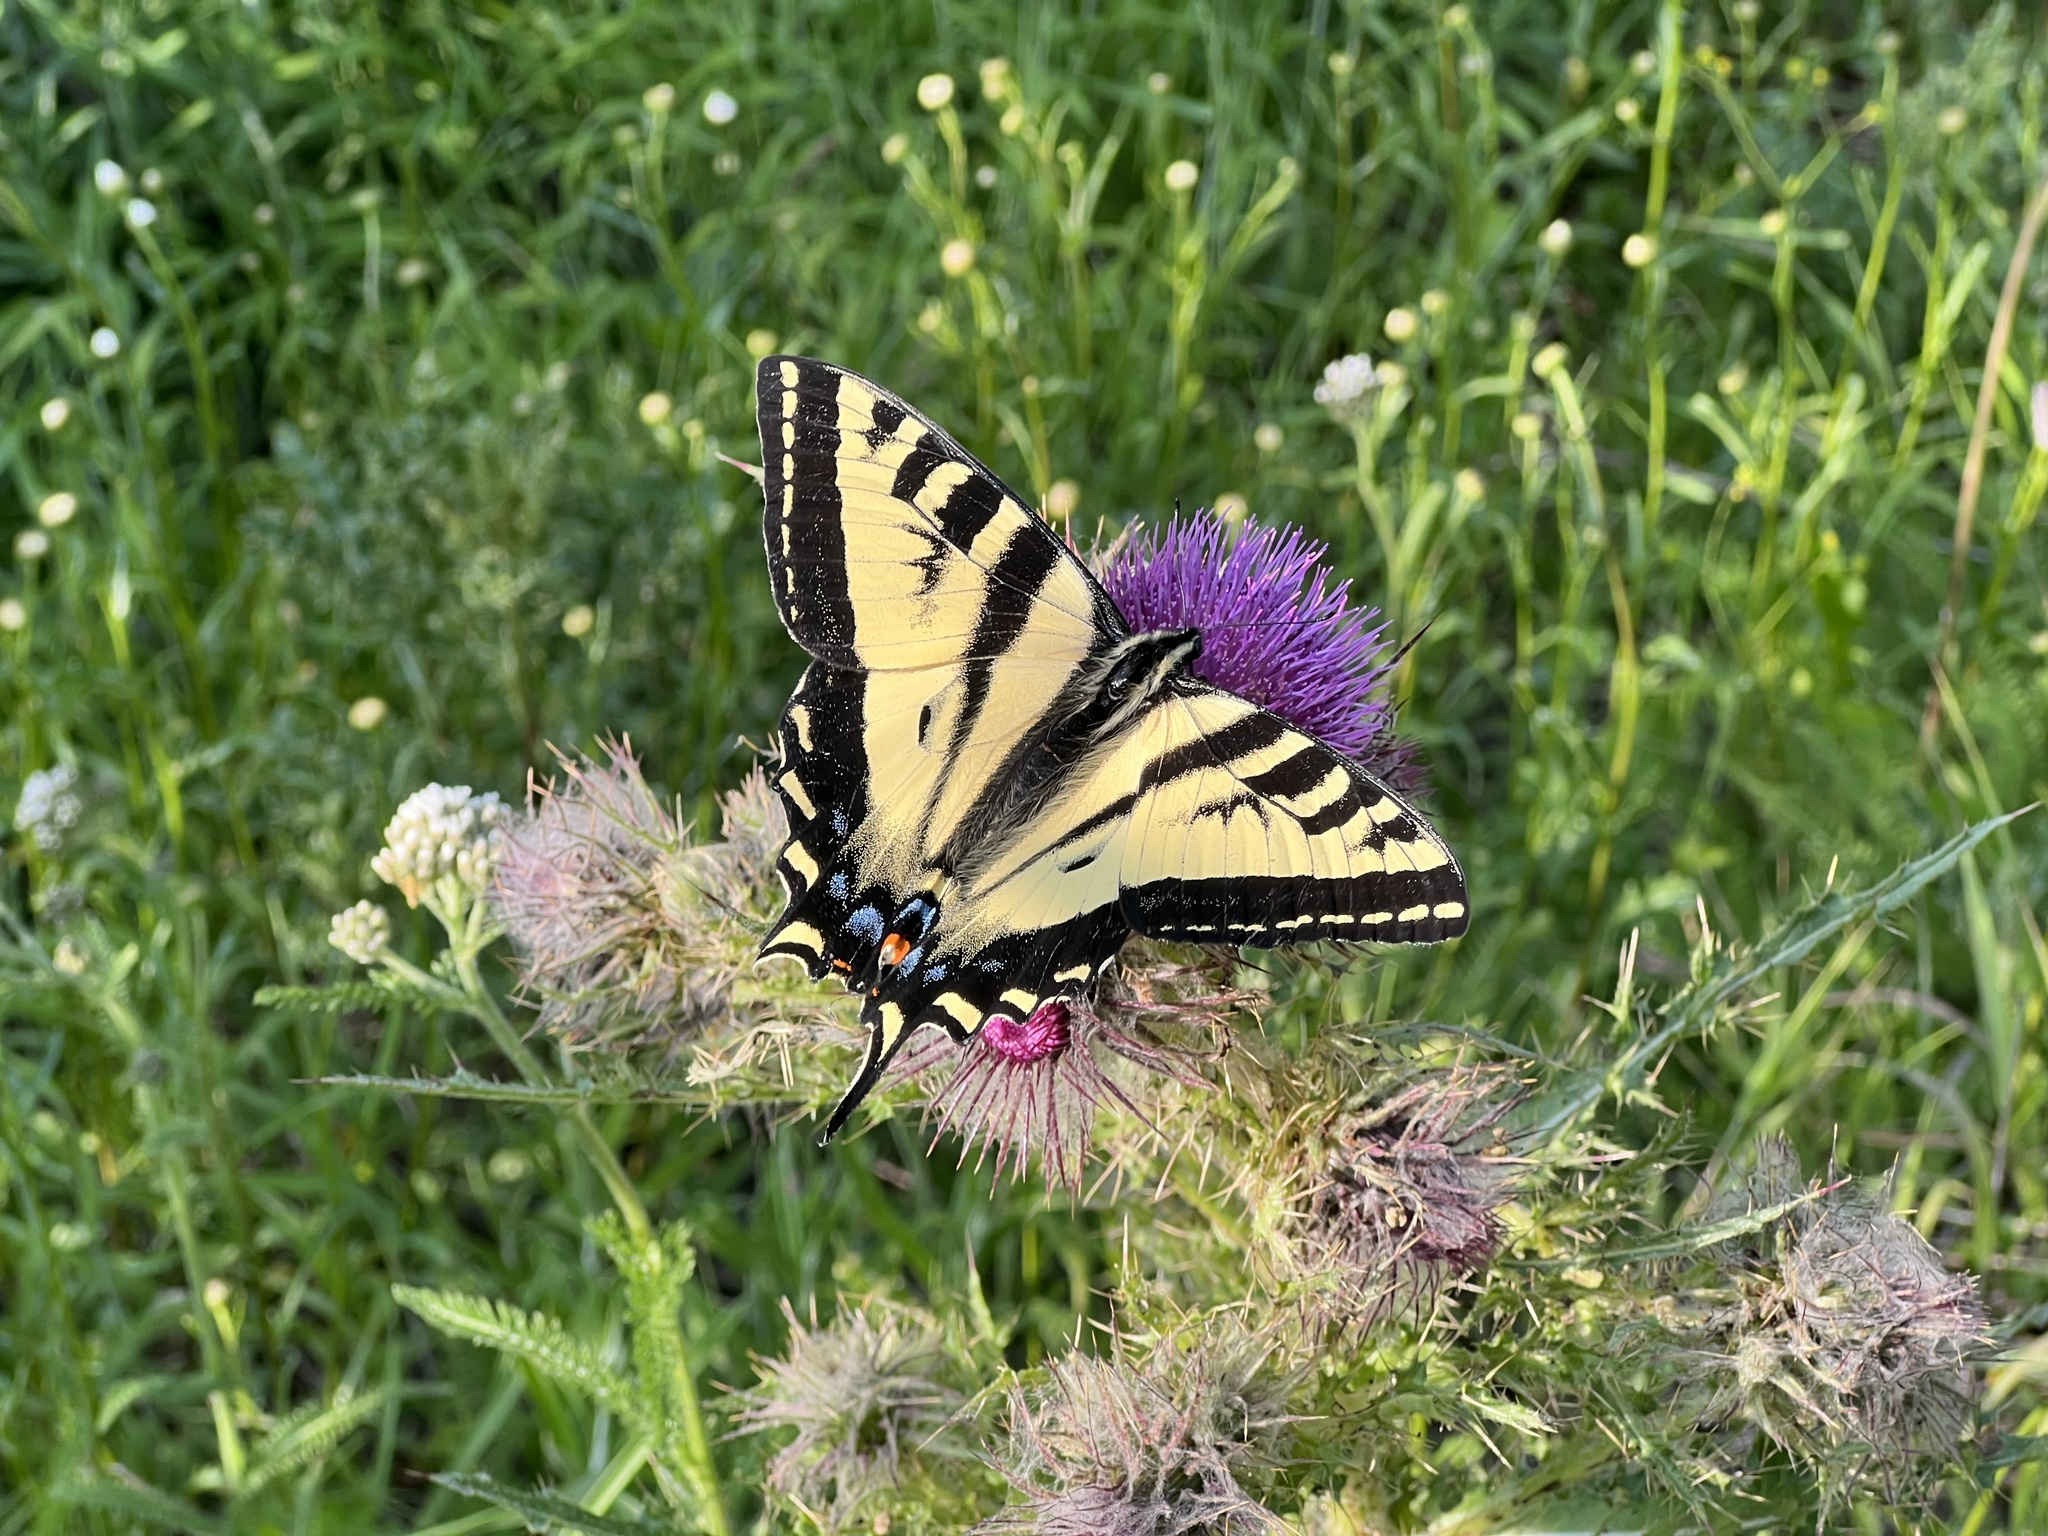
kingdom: Animalia
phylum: Arthropoda
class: Insecta
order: Lepidoptera
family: Papilionidae
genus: Papilio
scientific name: Papilio rutulus
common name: Western tiger swallowtail
